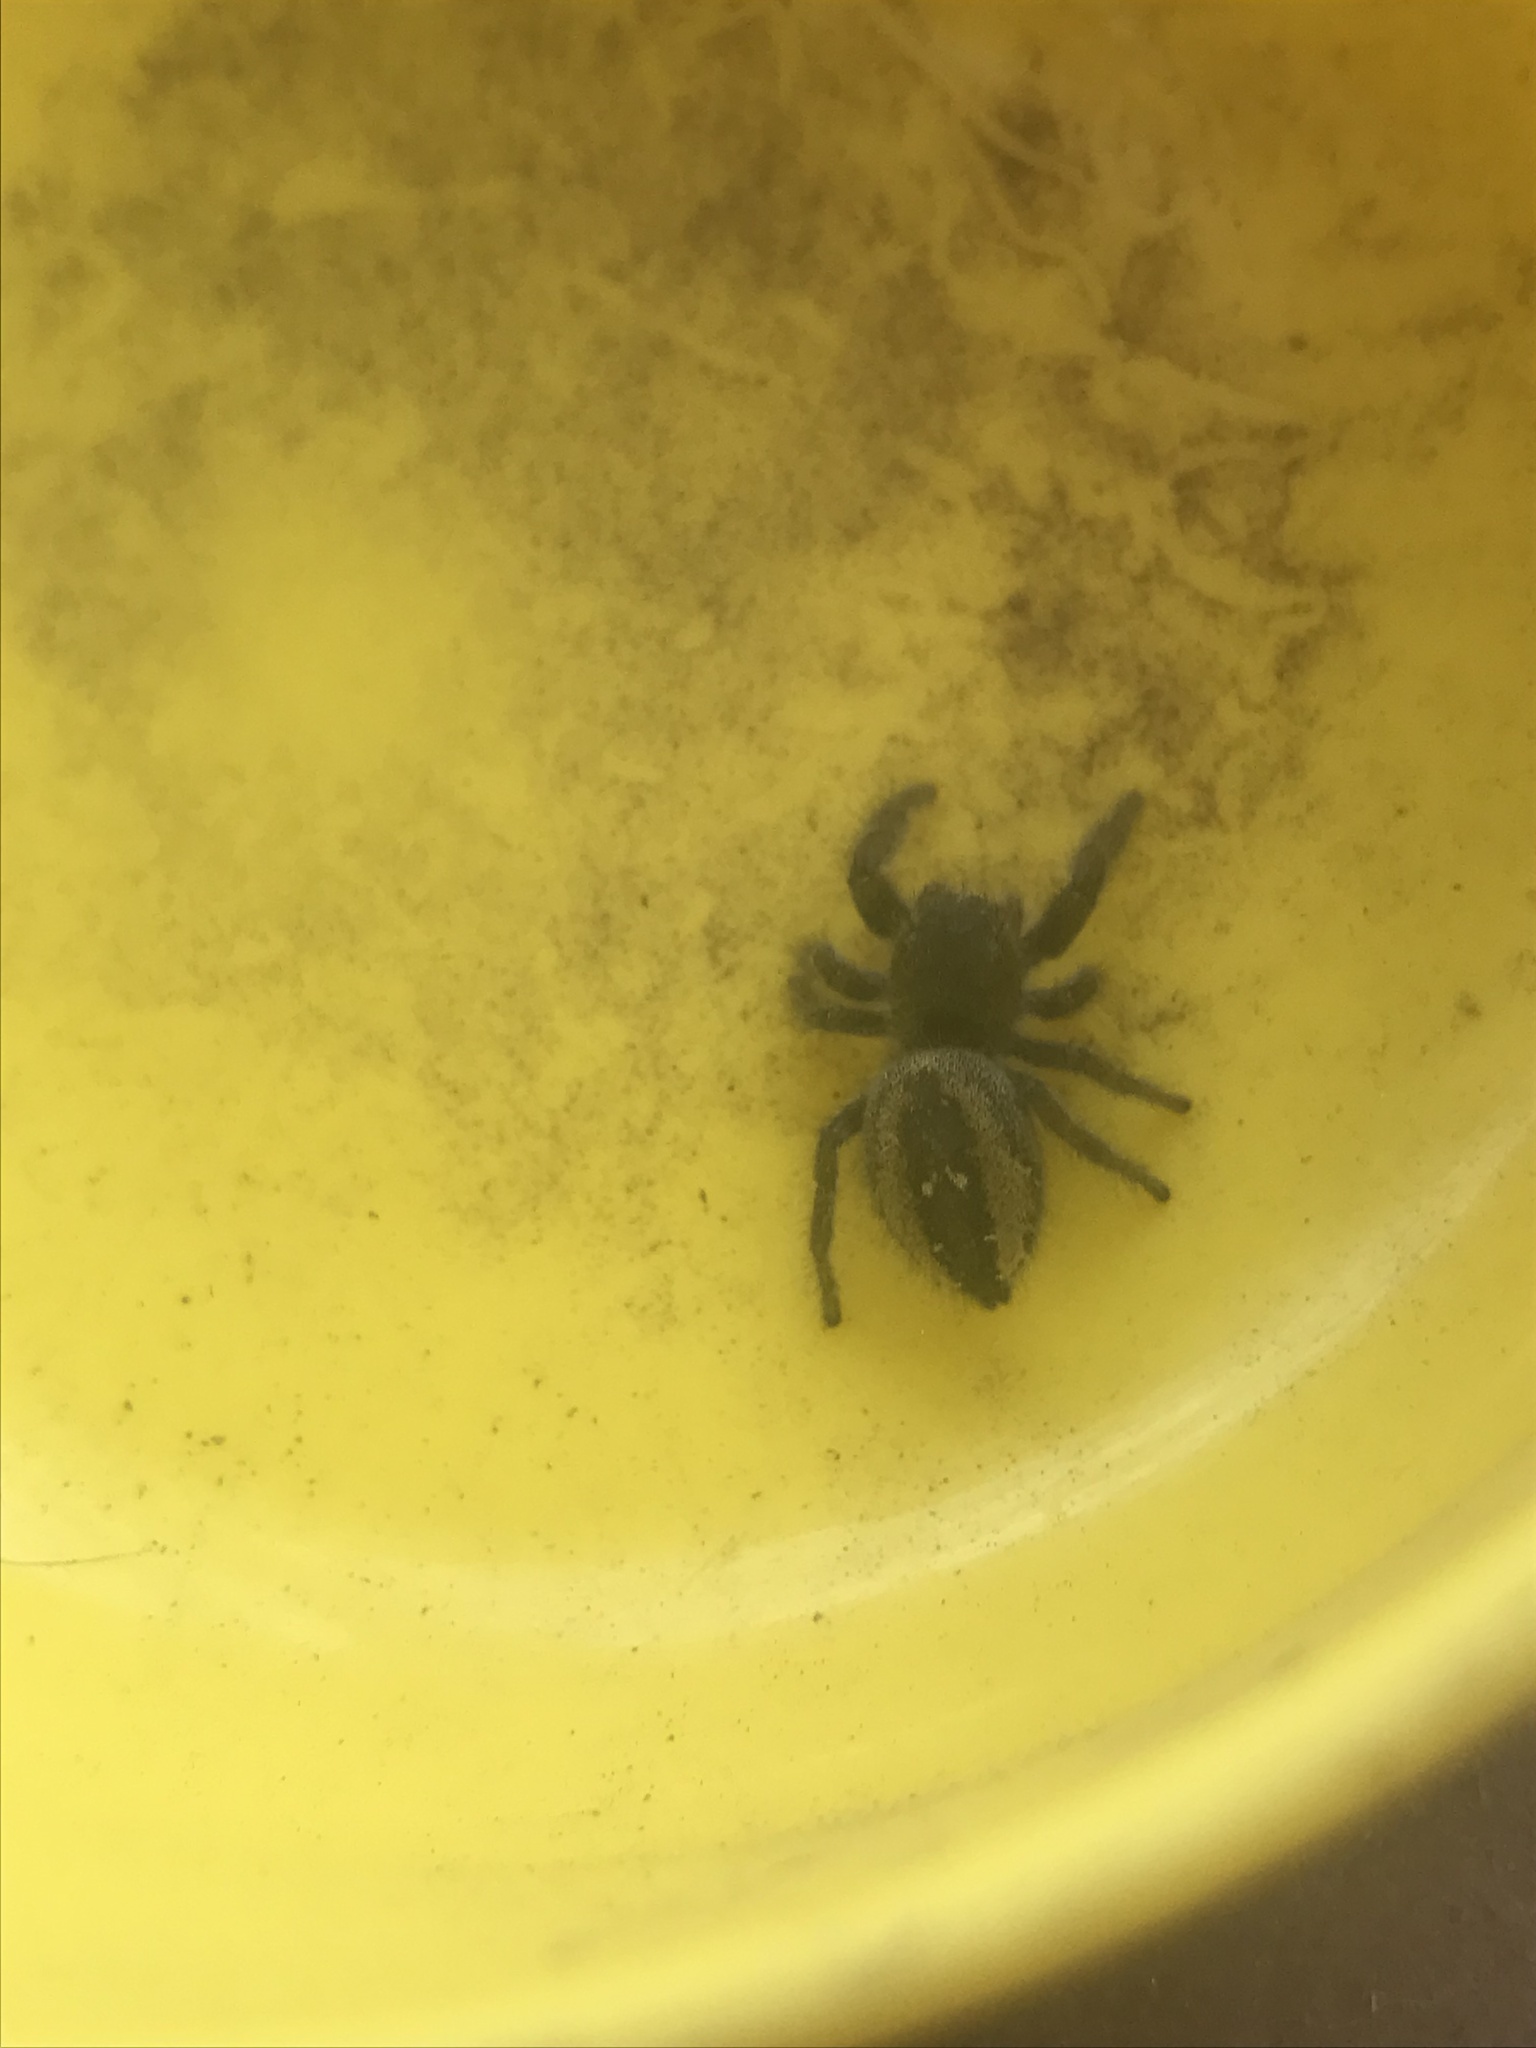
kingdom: Animalia
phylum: Arthropoda
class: Arachnida
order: Araneae
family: Salticidae
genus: Phidippus
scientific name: Phidippus johnsoni
